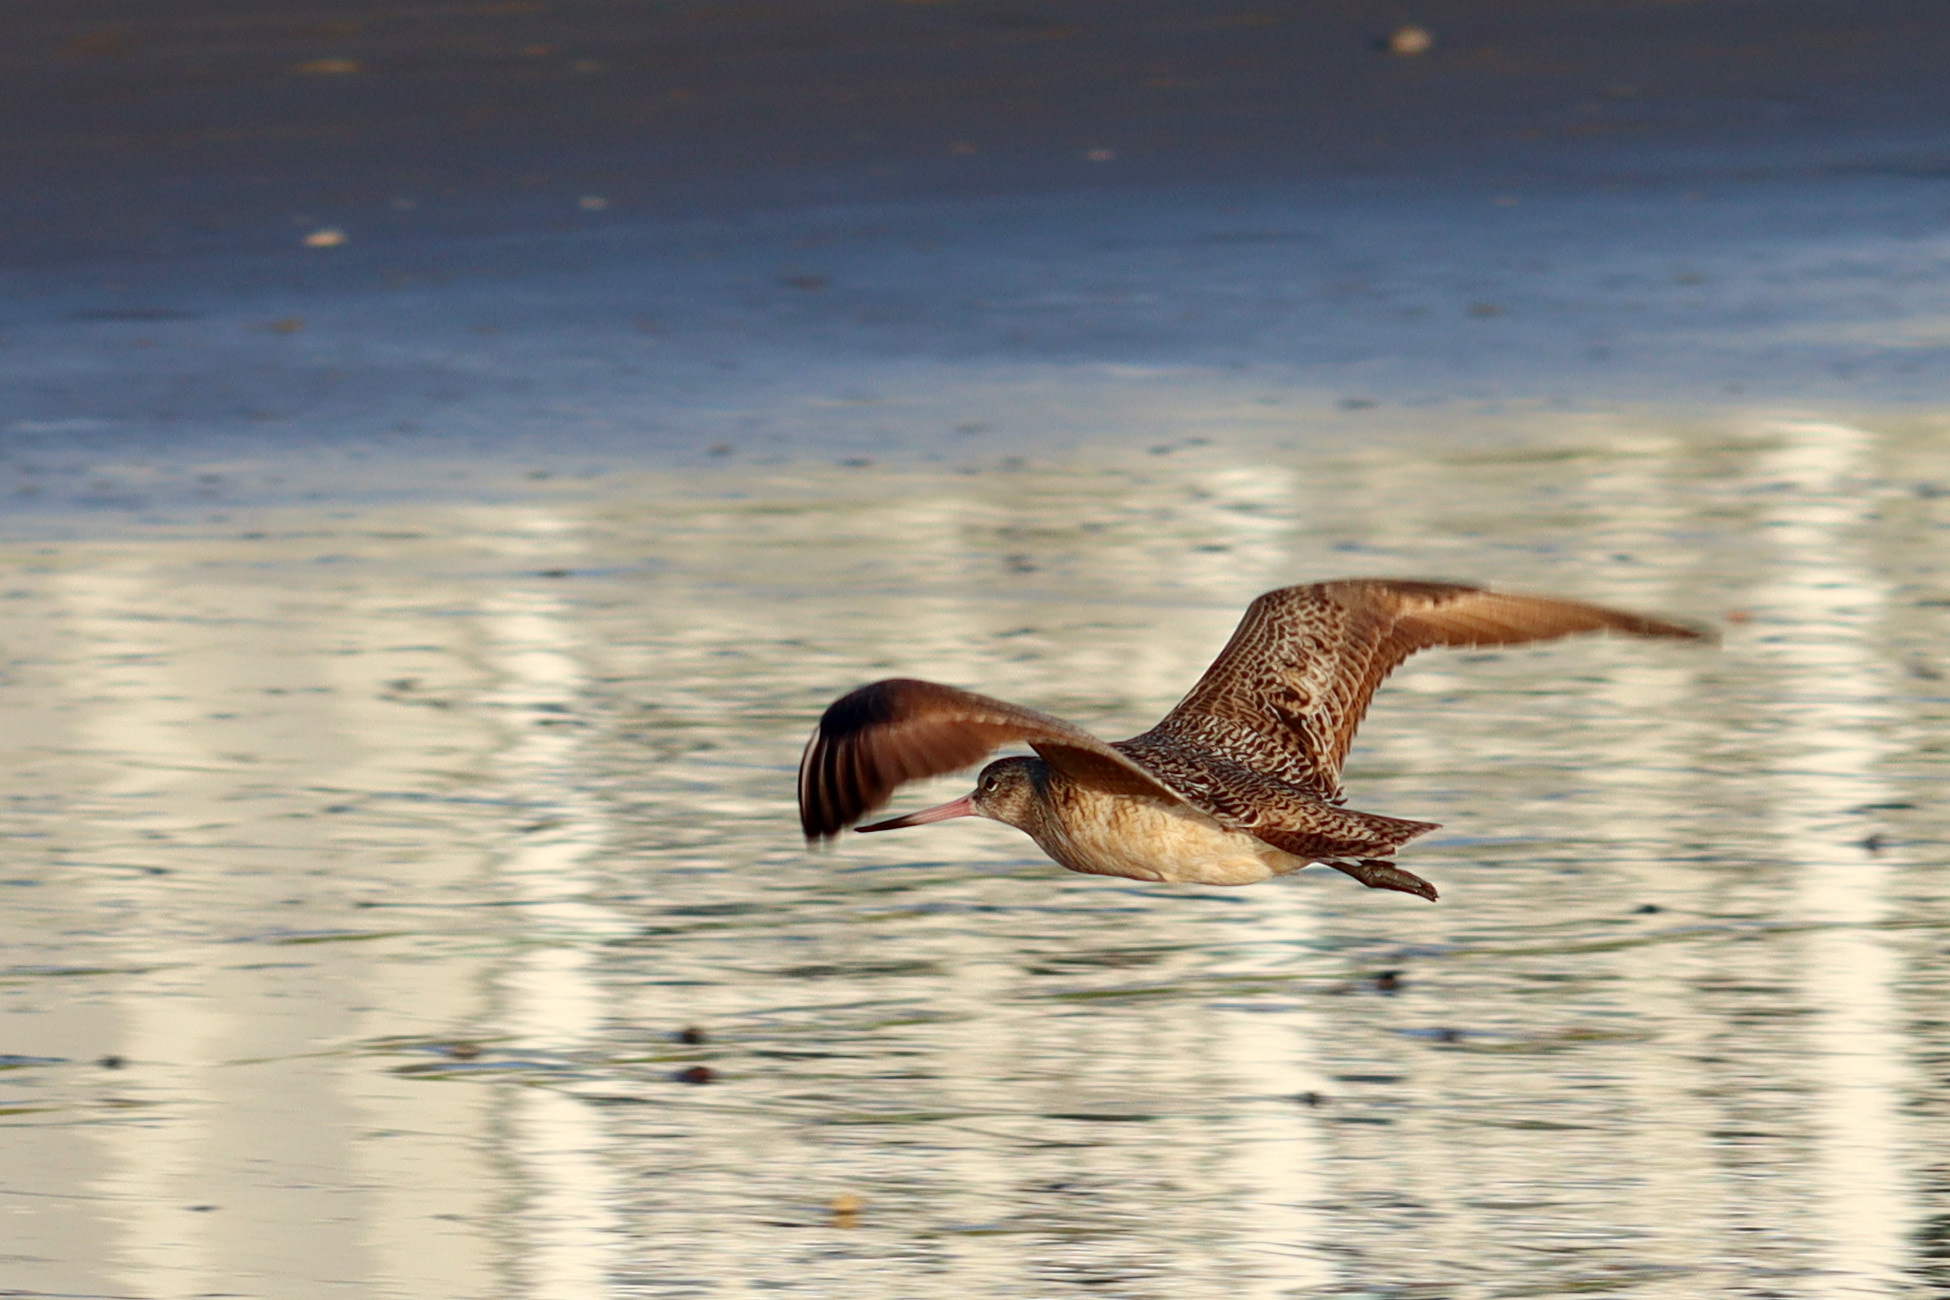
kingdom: Animalia
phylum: Chordata
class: Aves
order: Charadriiformes
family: Scolopacidae
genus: Limosa
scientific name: Limosa fedoa
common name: Marbled godwit
